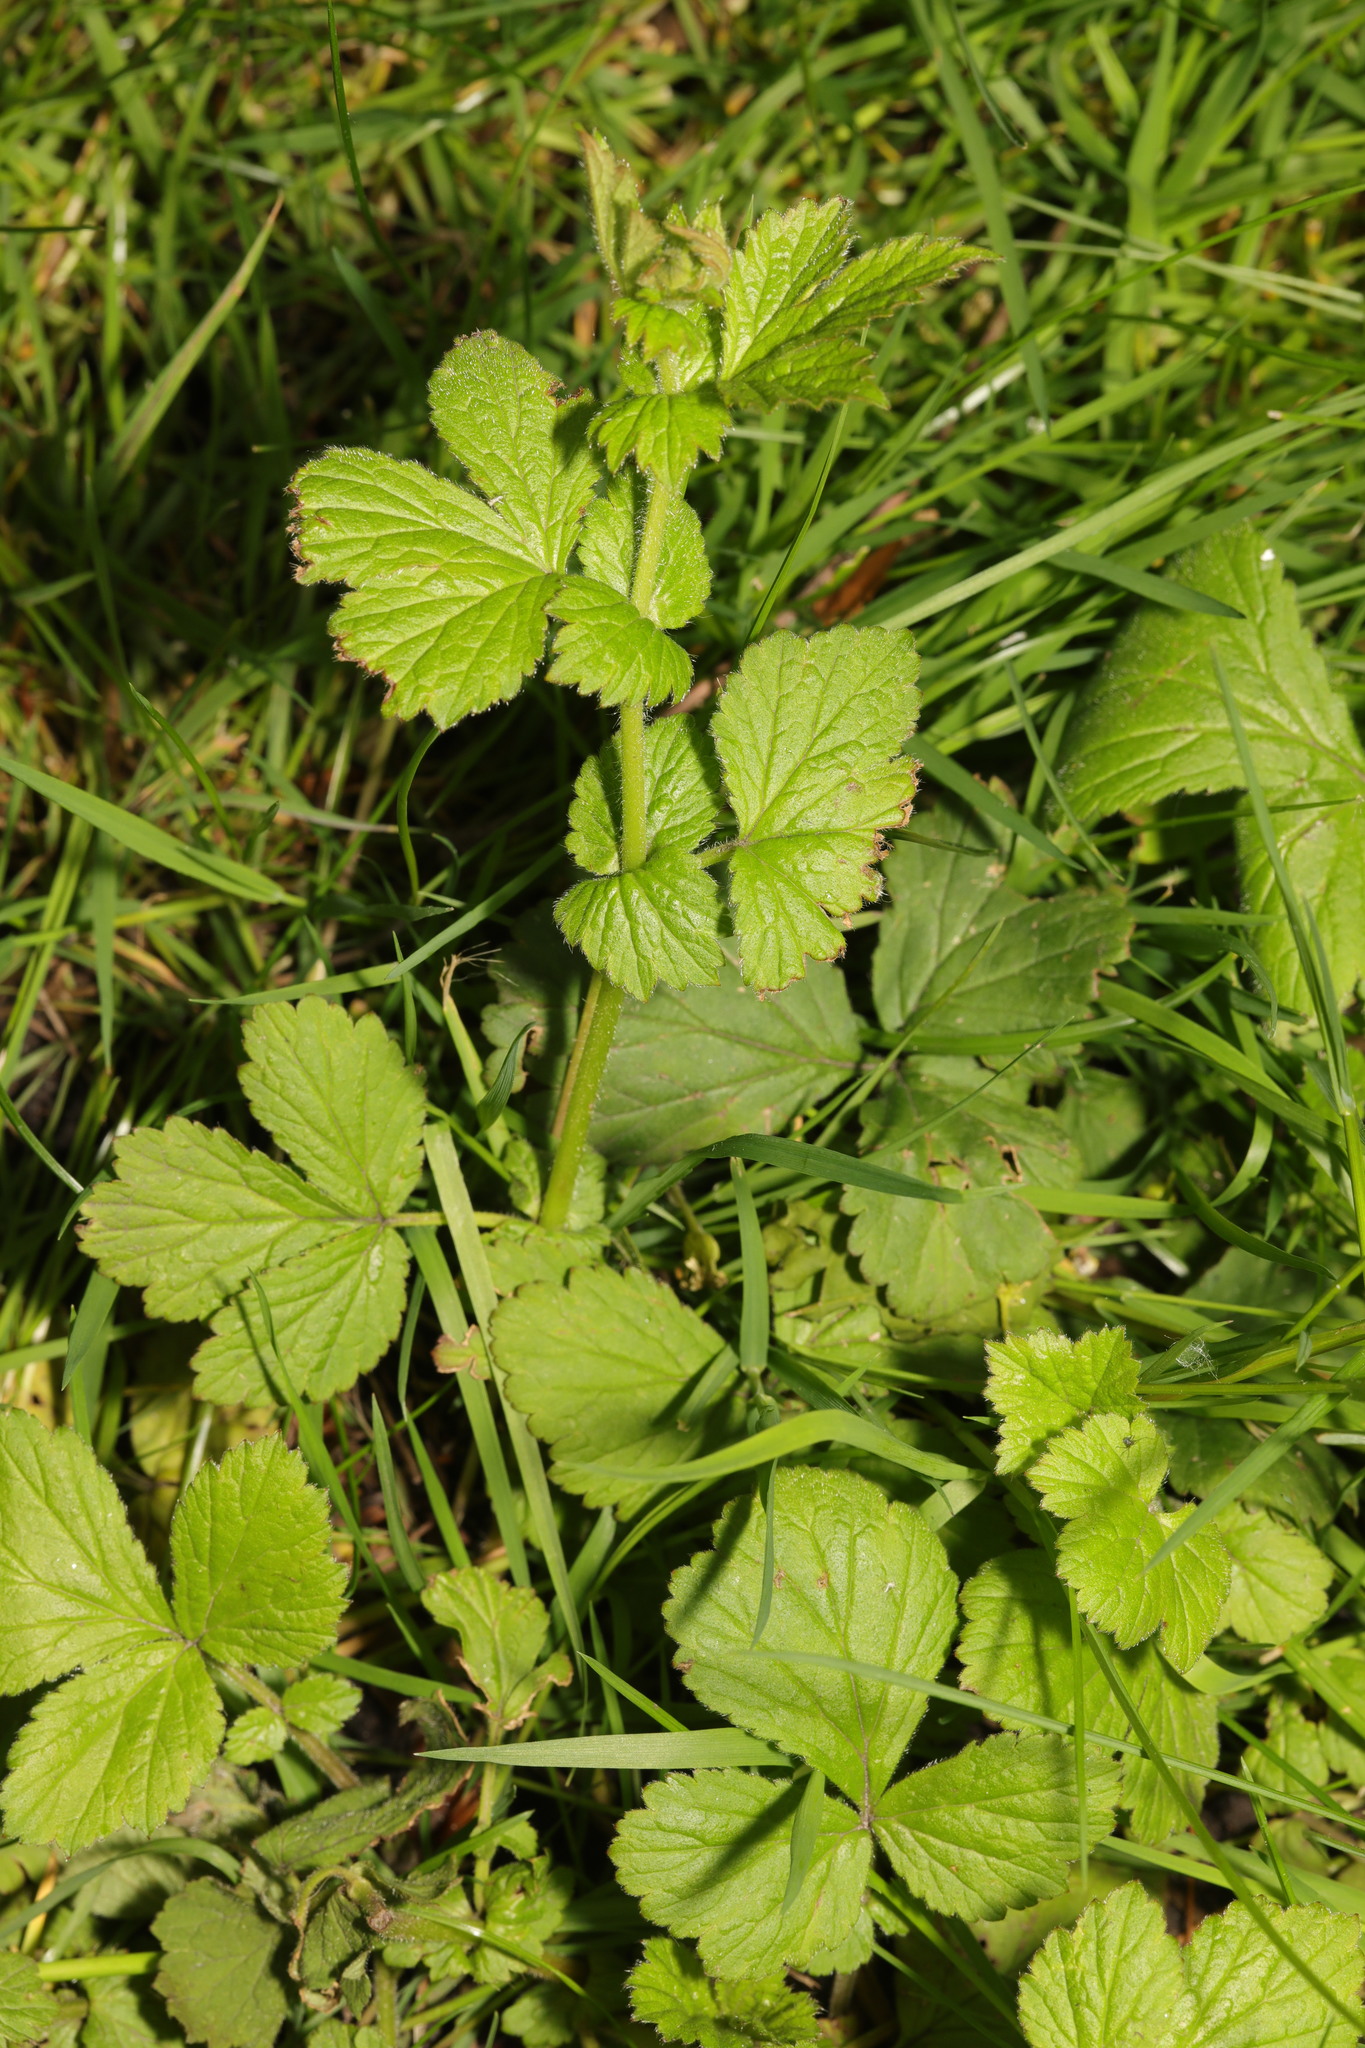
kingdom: Plantae
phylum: Tracheophyta
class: Magnoliopsida
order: Rosales
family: Rosaceae
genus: Geum
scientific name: Geum urbanum
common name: Wood avens
